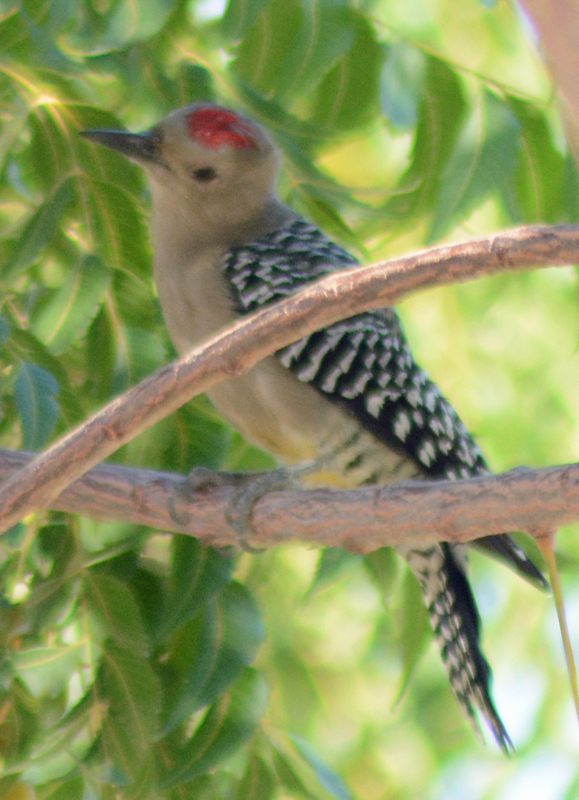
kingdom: Animalia
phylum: Chordata
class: Aves
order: Piciformes
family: Picidae
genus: Melanerpes
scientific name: Melanerpes uropygialis
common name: Gila woodpecker
